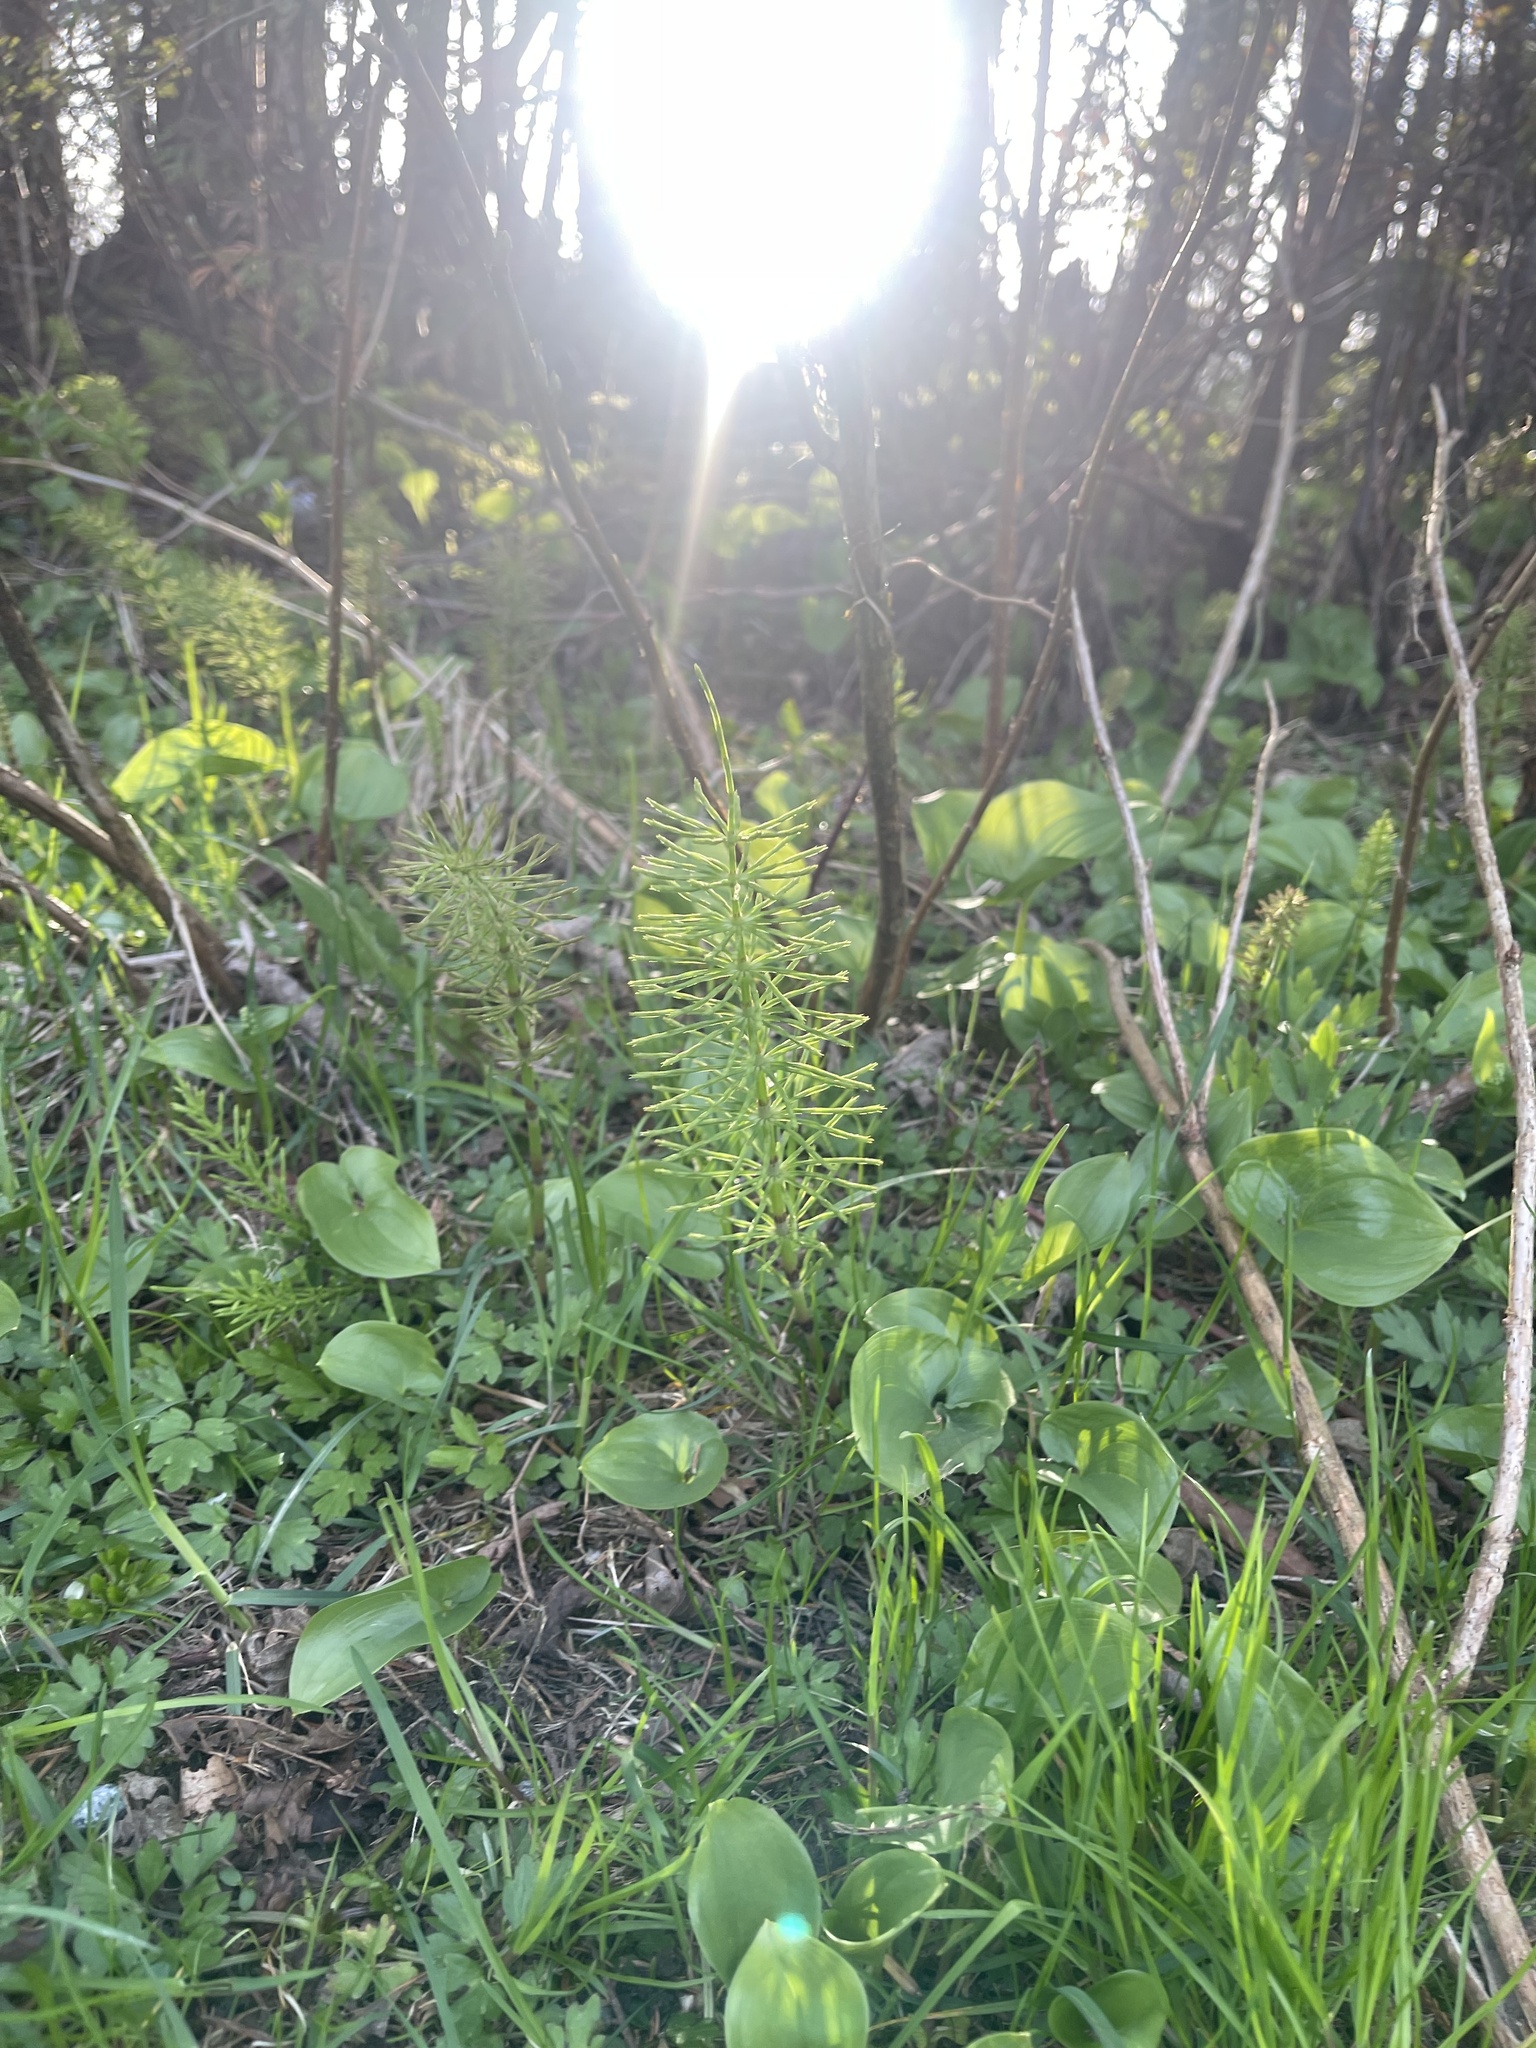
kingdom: Plantae
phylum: Tracheophyta
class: Polypodiopsida
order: Equisetales
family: Equisetaceae
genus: Equisetum
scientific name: Equisetum arvense
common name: Field horsetail
